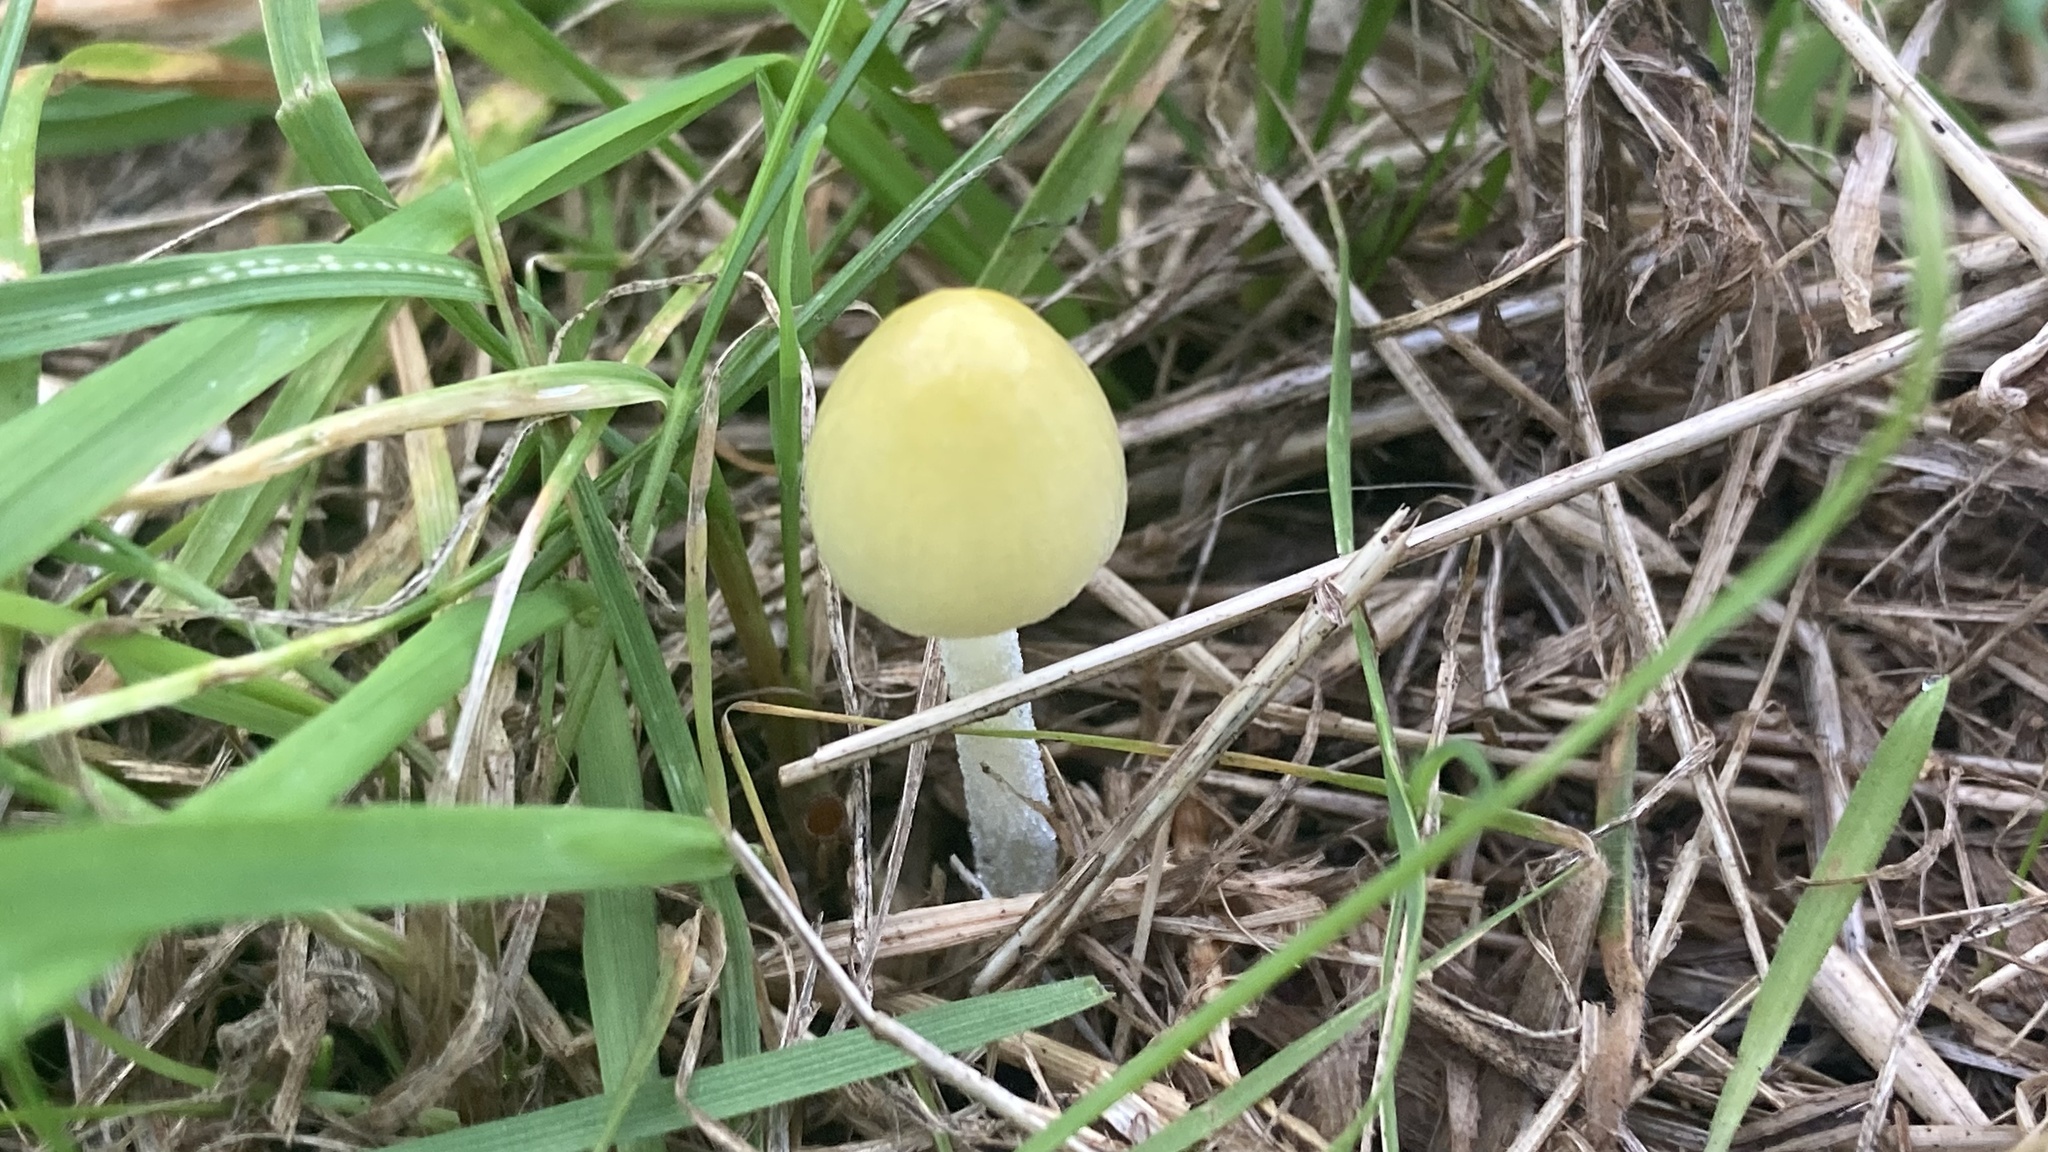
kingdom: Fungi
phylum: Basidiomycota
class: Agaricomycetes
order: Agaricales
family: Bolbitiaceae
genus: Bolbitius
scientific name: Bolbitius titubans
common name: Yellow fieldcap
